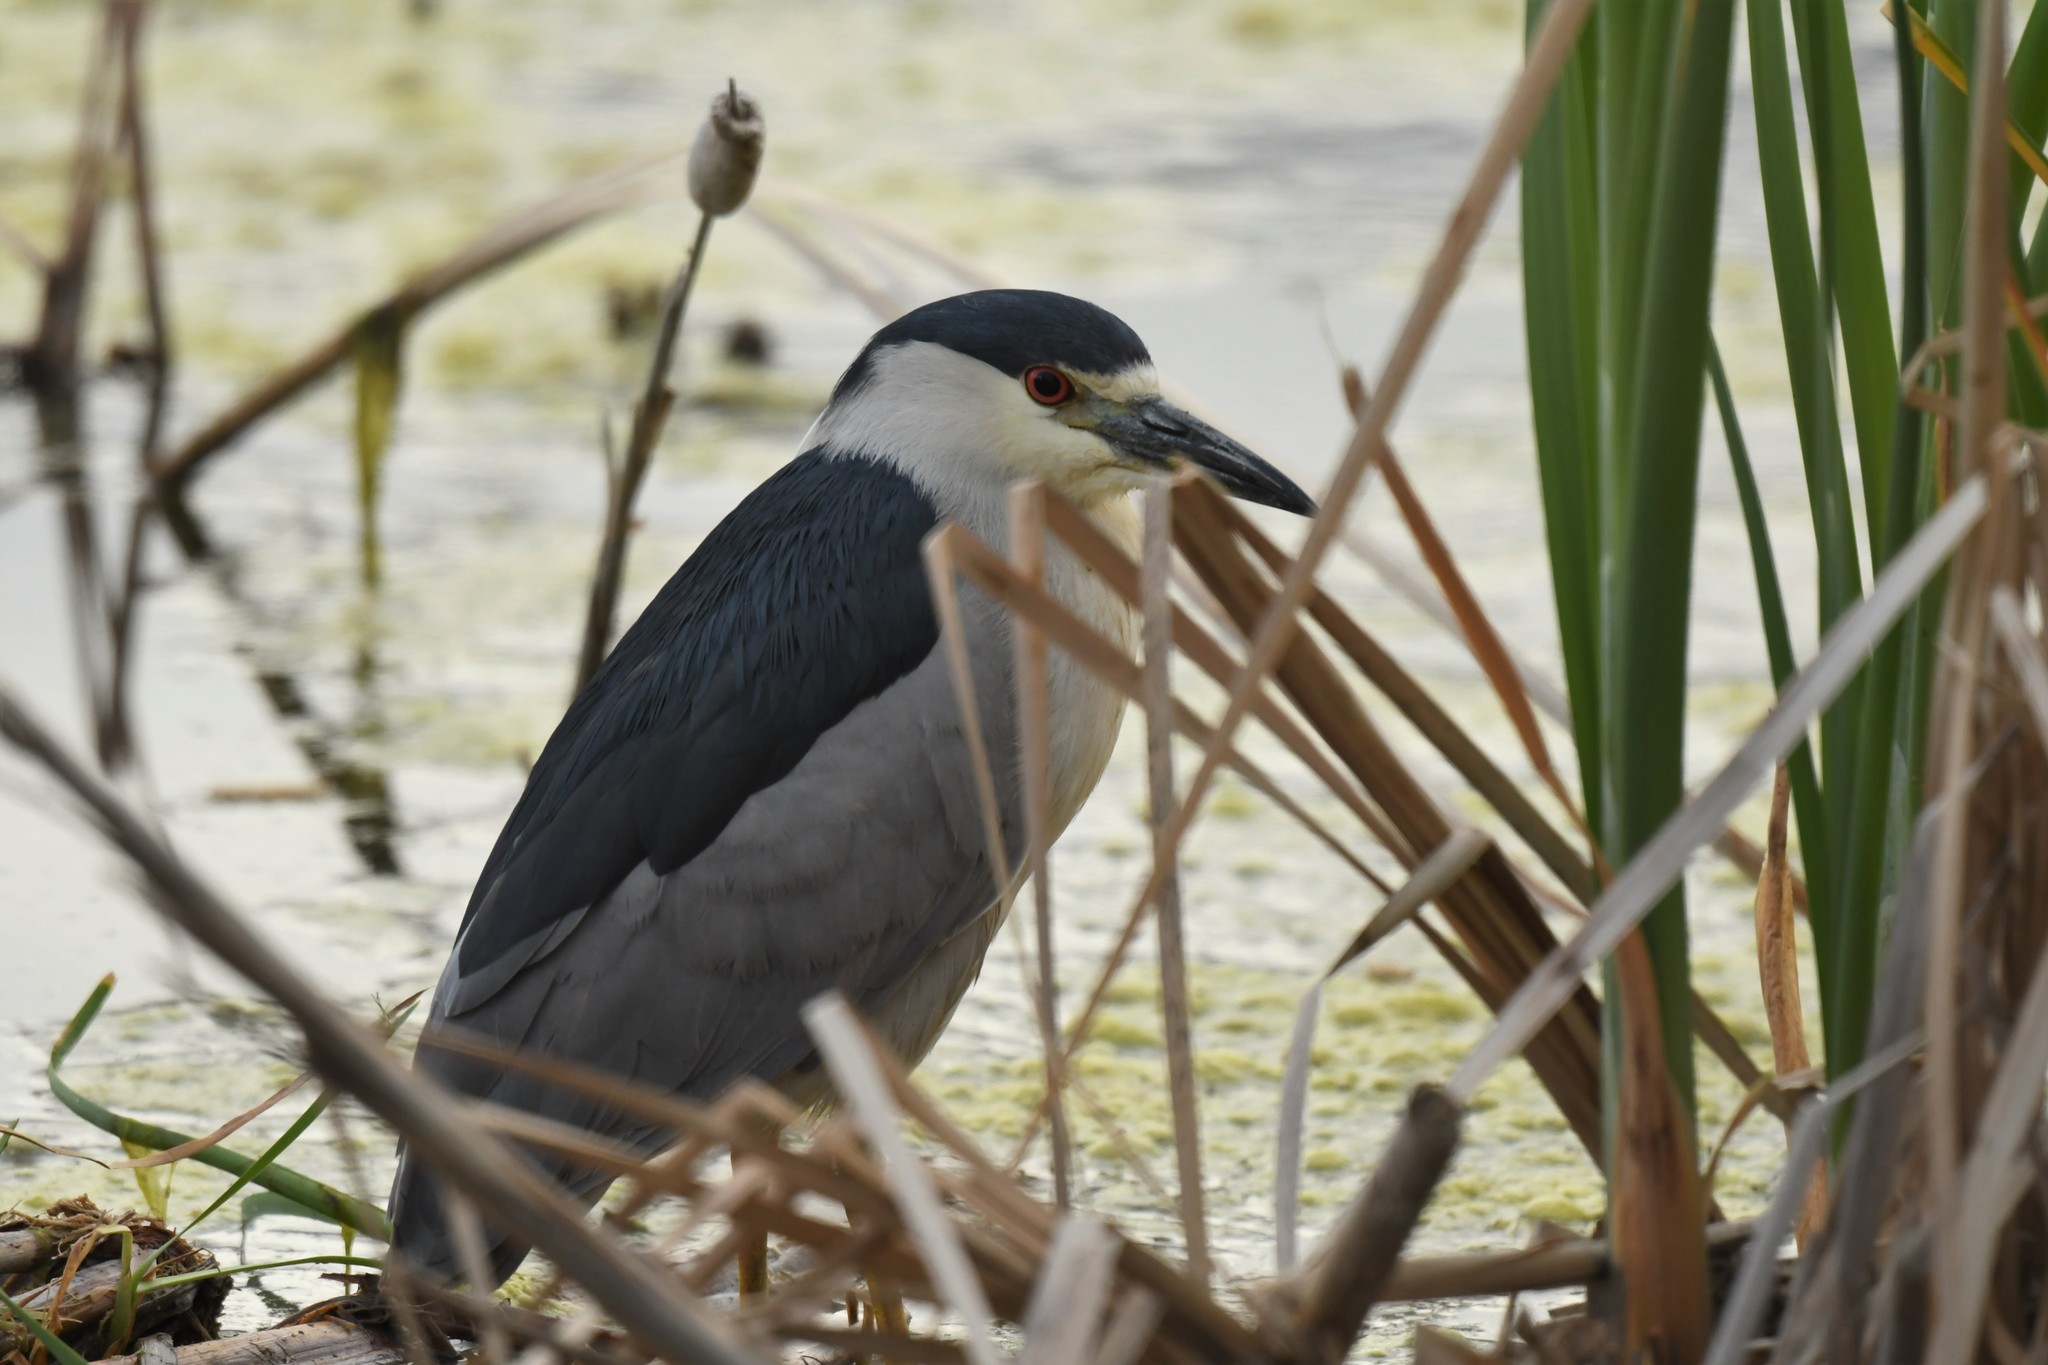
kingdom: Animalia
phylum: Chordata
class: Aves
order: Pelecaniformes
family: Ardeidae
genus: Nycticorax
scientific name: Nycticorax nycticorax
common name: Black-crowned night heron
